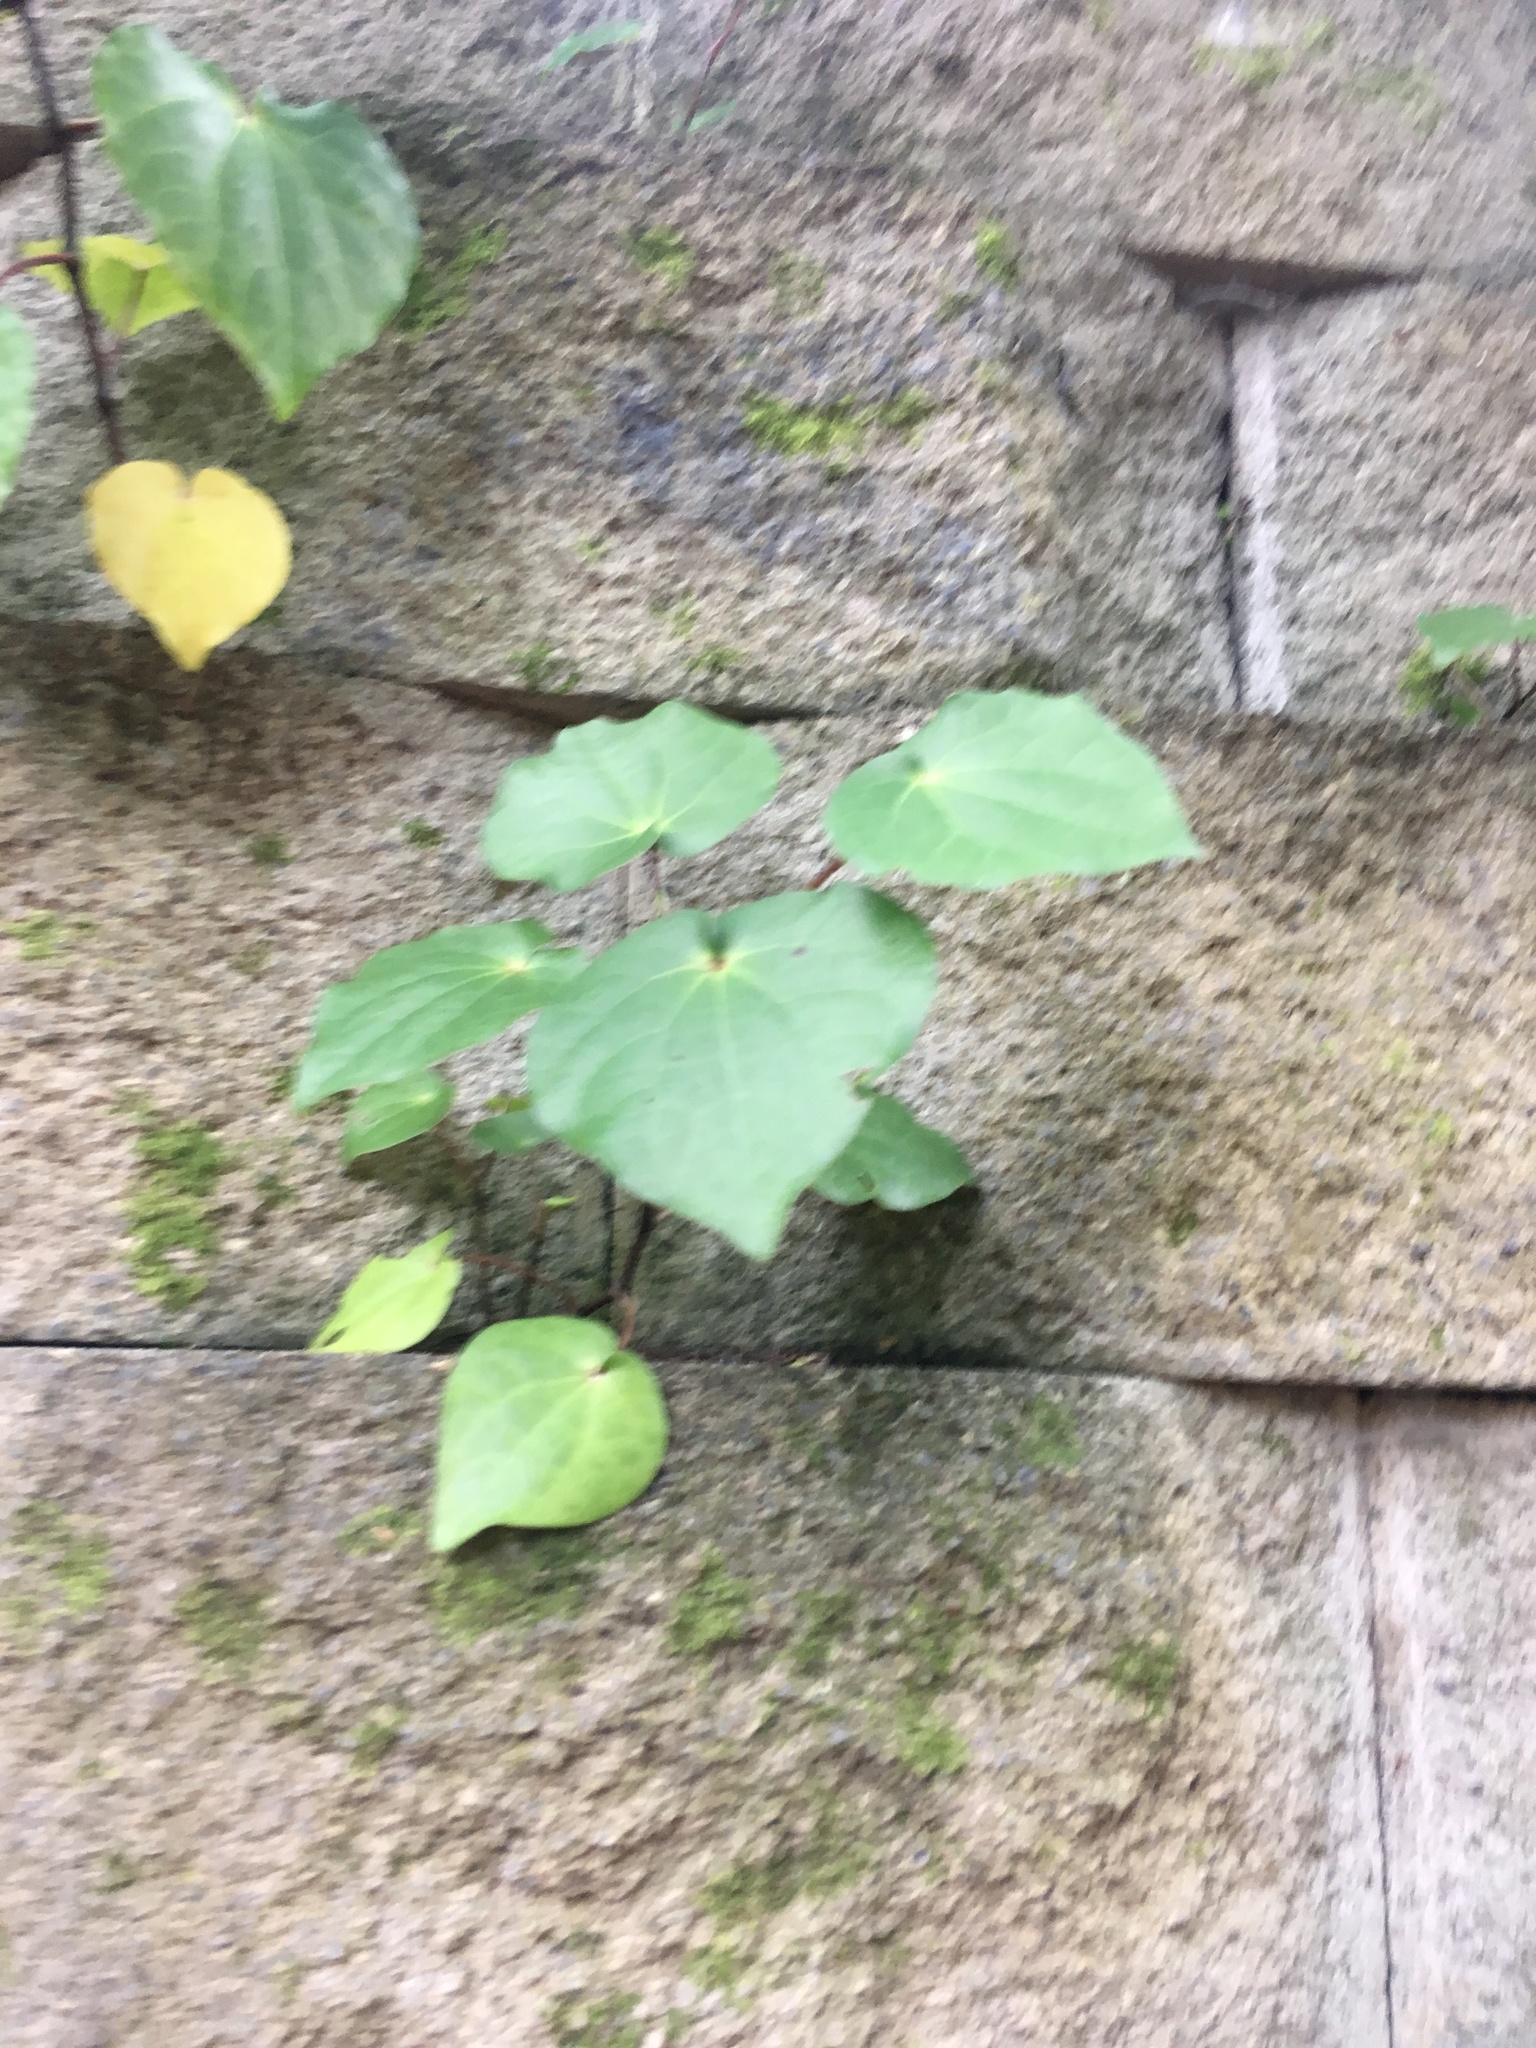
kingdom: Plantae
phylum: Tracheophyta
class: Magnoliopsida
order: Piperales
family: Piperaceae
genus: Macropiper
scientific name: Macropiper excelsum
